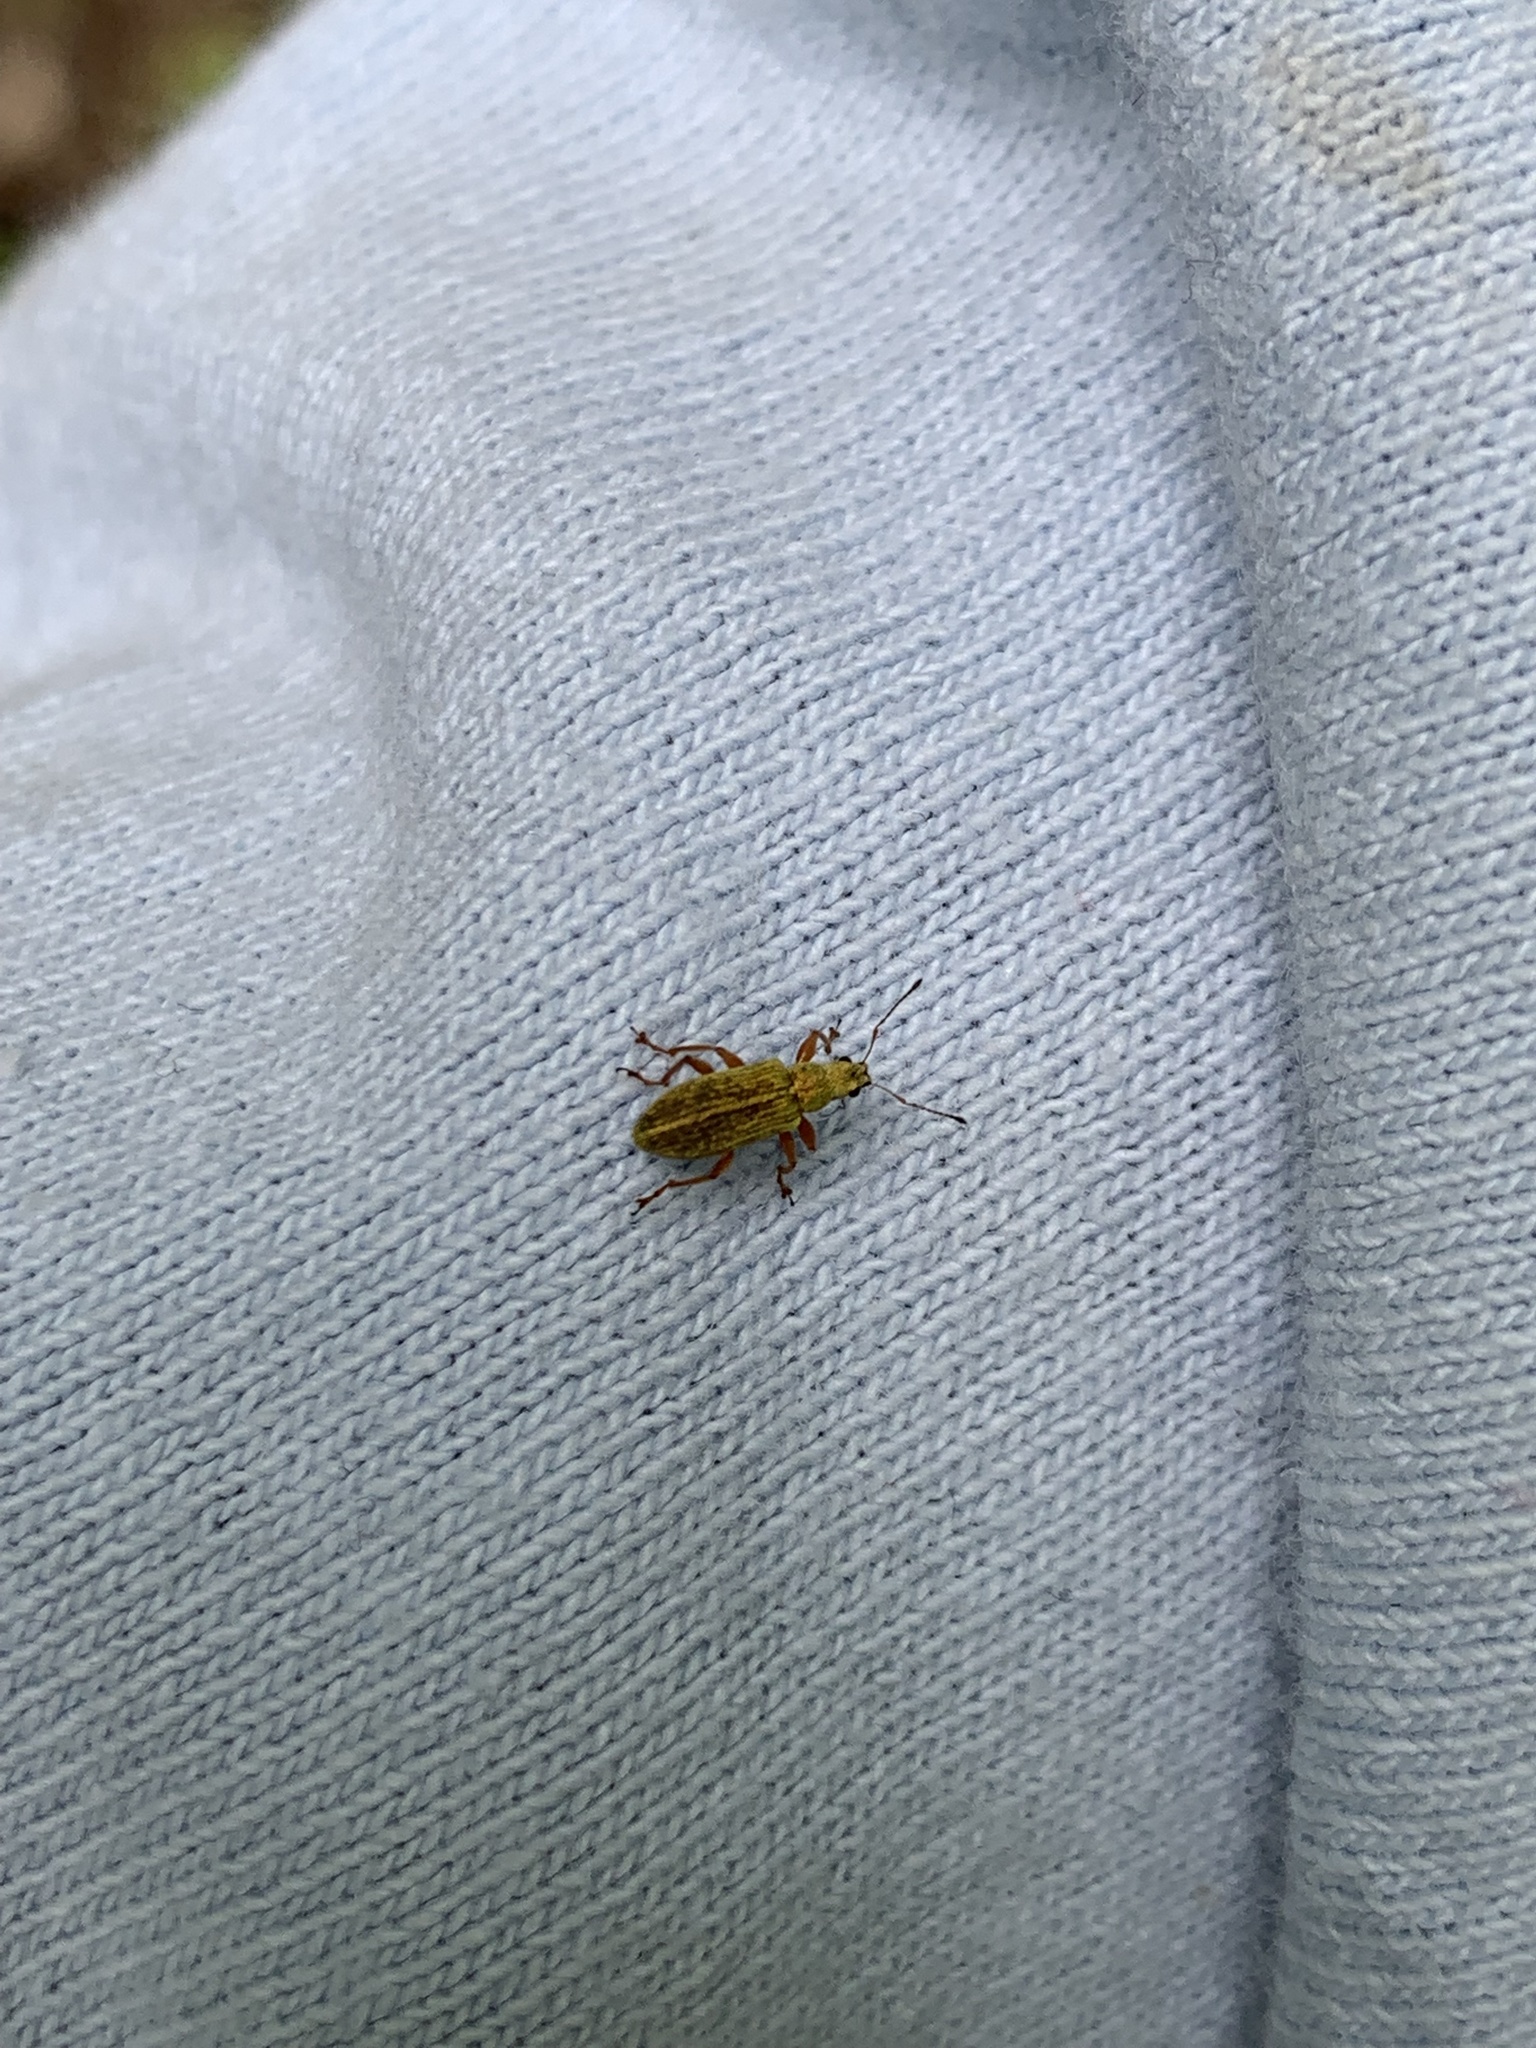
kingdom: Animalia
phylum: Arthropoda
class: Insecta
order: Coleoptera
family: Curculionidae
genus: Polydrusus
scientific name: Polydrusus impressifrons
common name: Weevil
